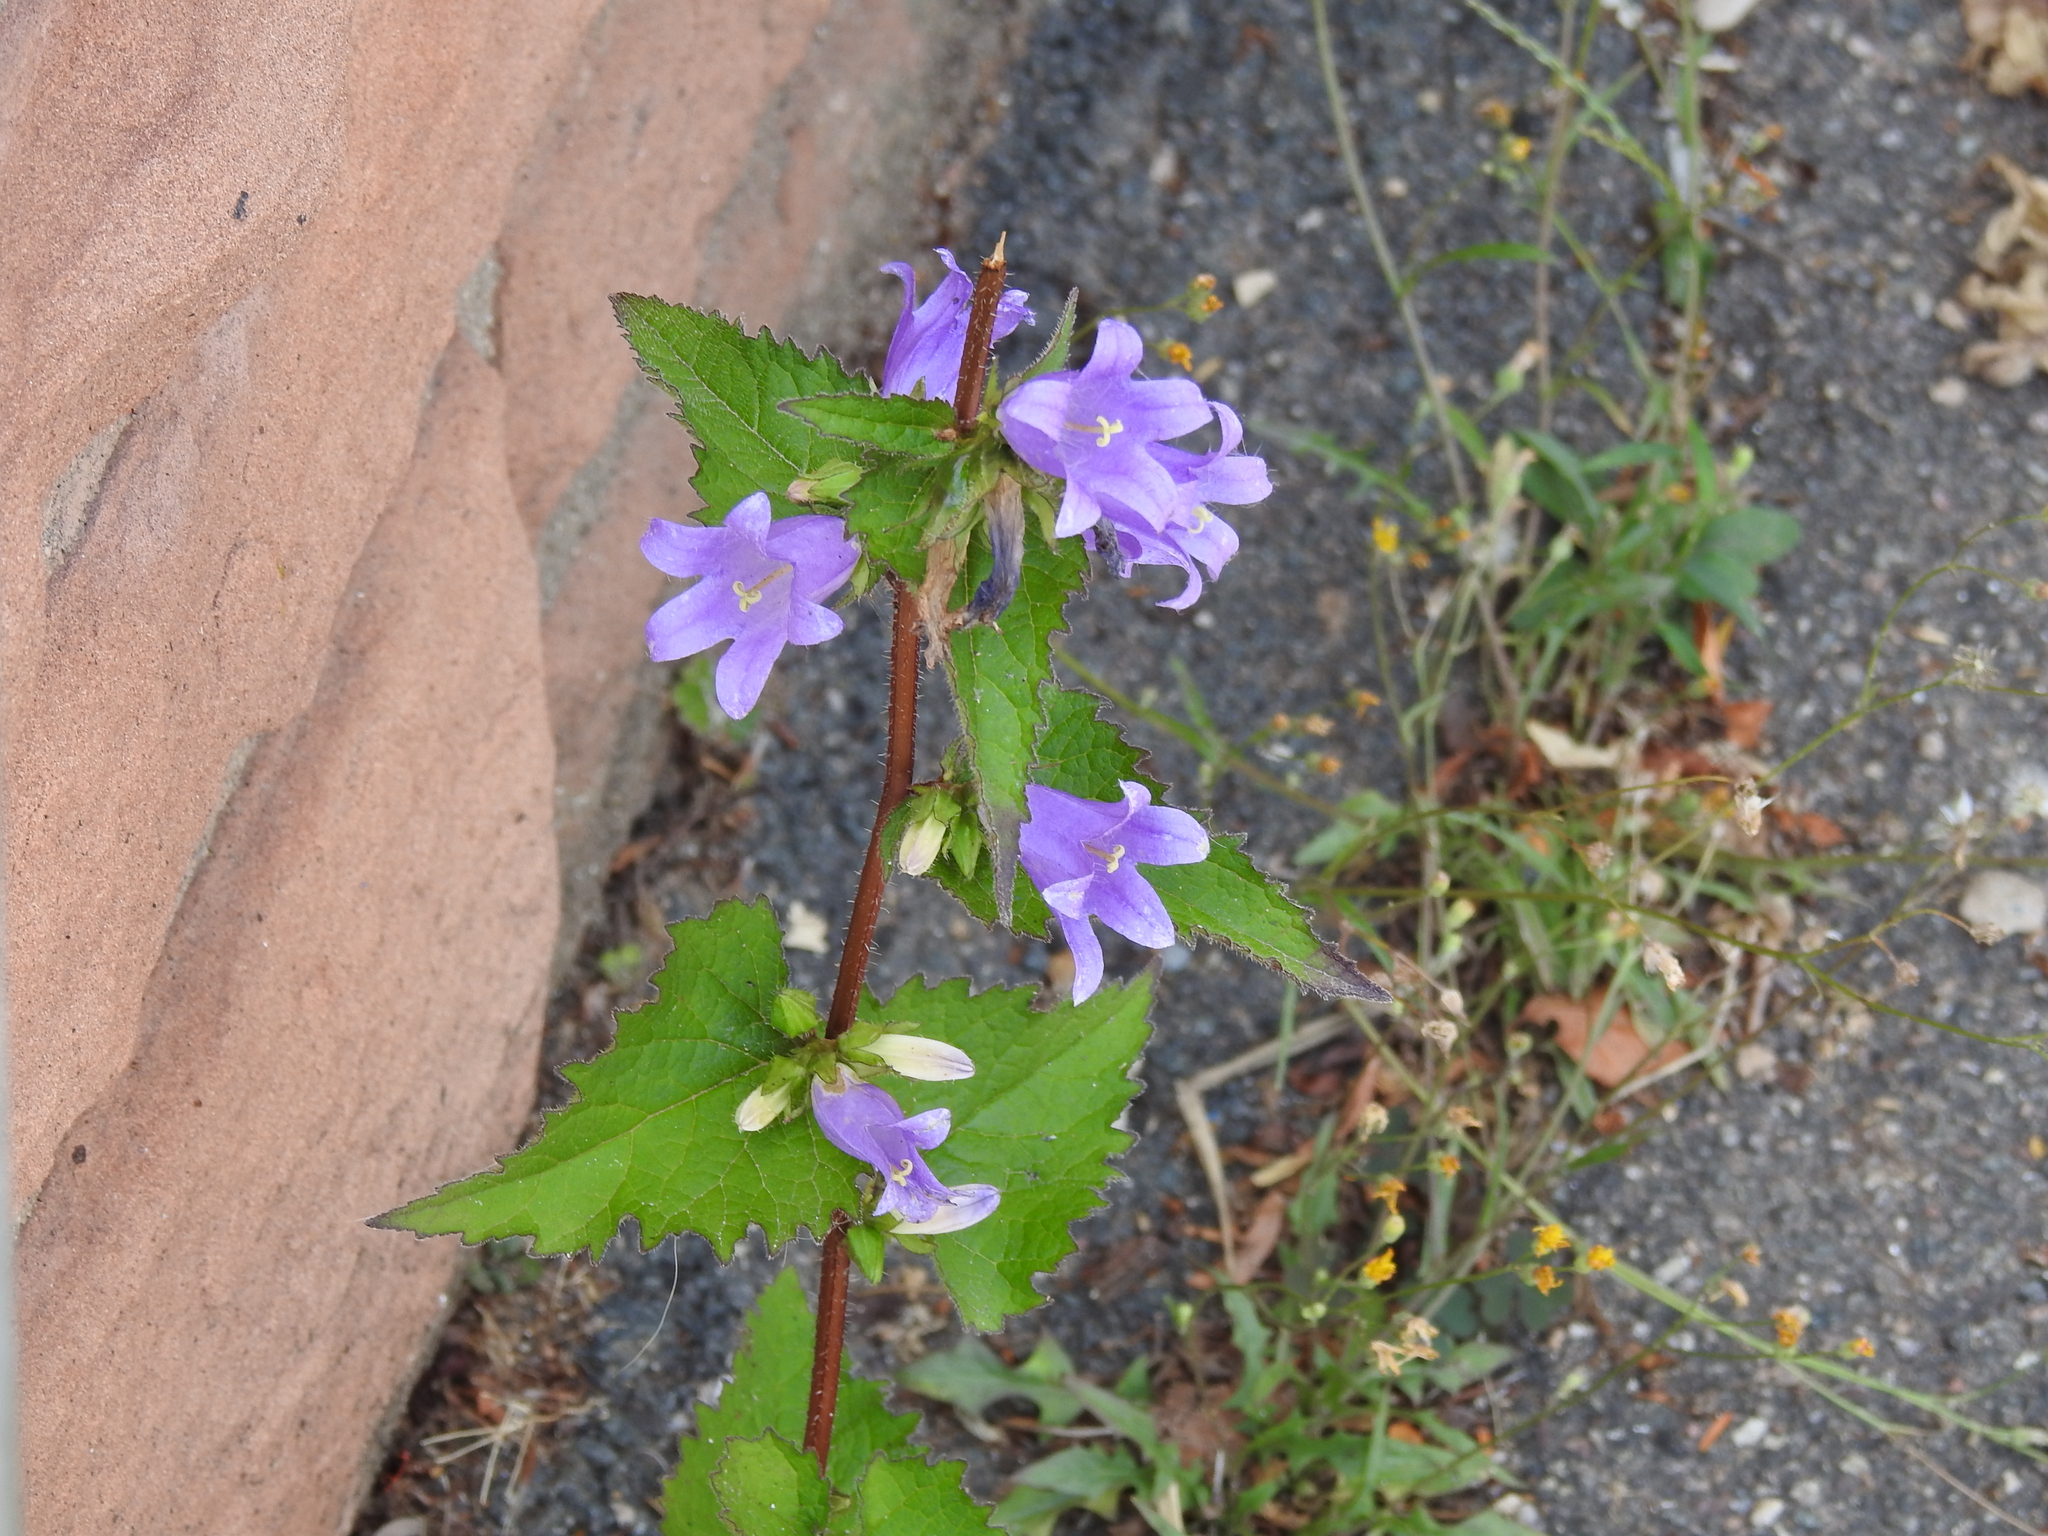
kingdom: Plantae
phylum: Tracheophyta
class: Magnoliopsida
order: Asterales
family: Campanulaceae
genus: Campanula
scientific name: Campanula trachelium
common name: Nettle-leaved bellflower
